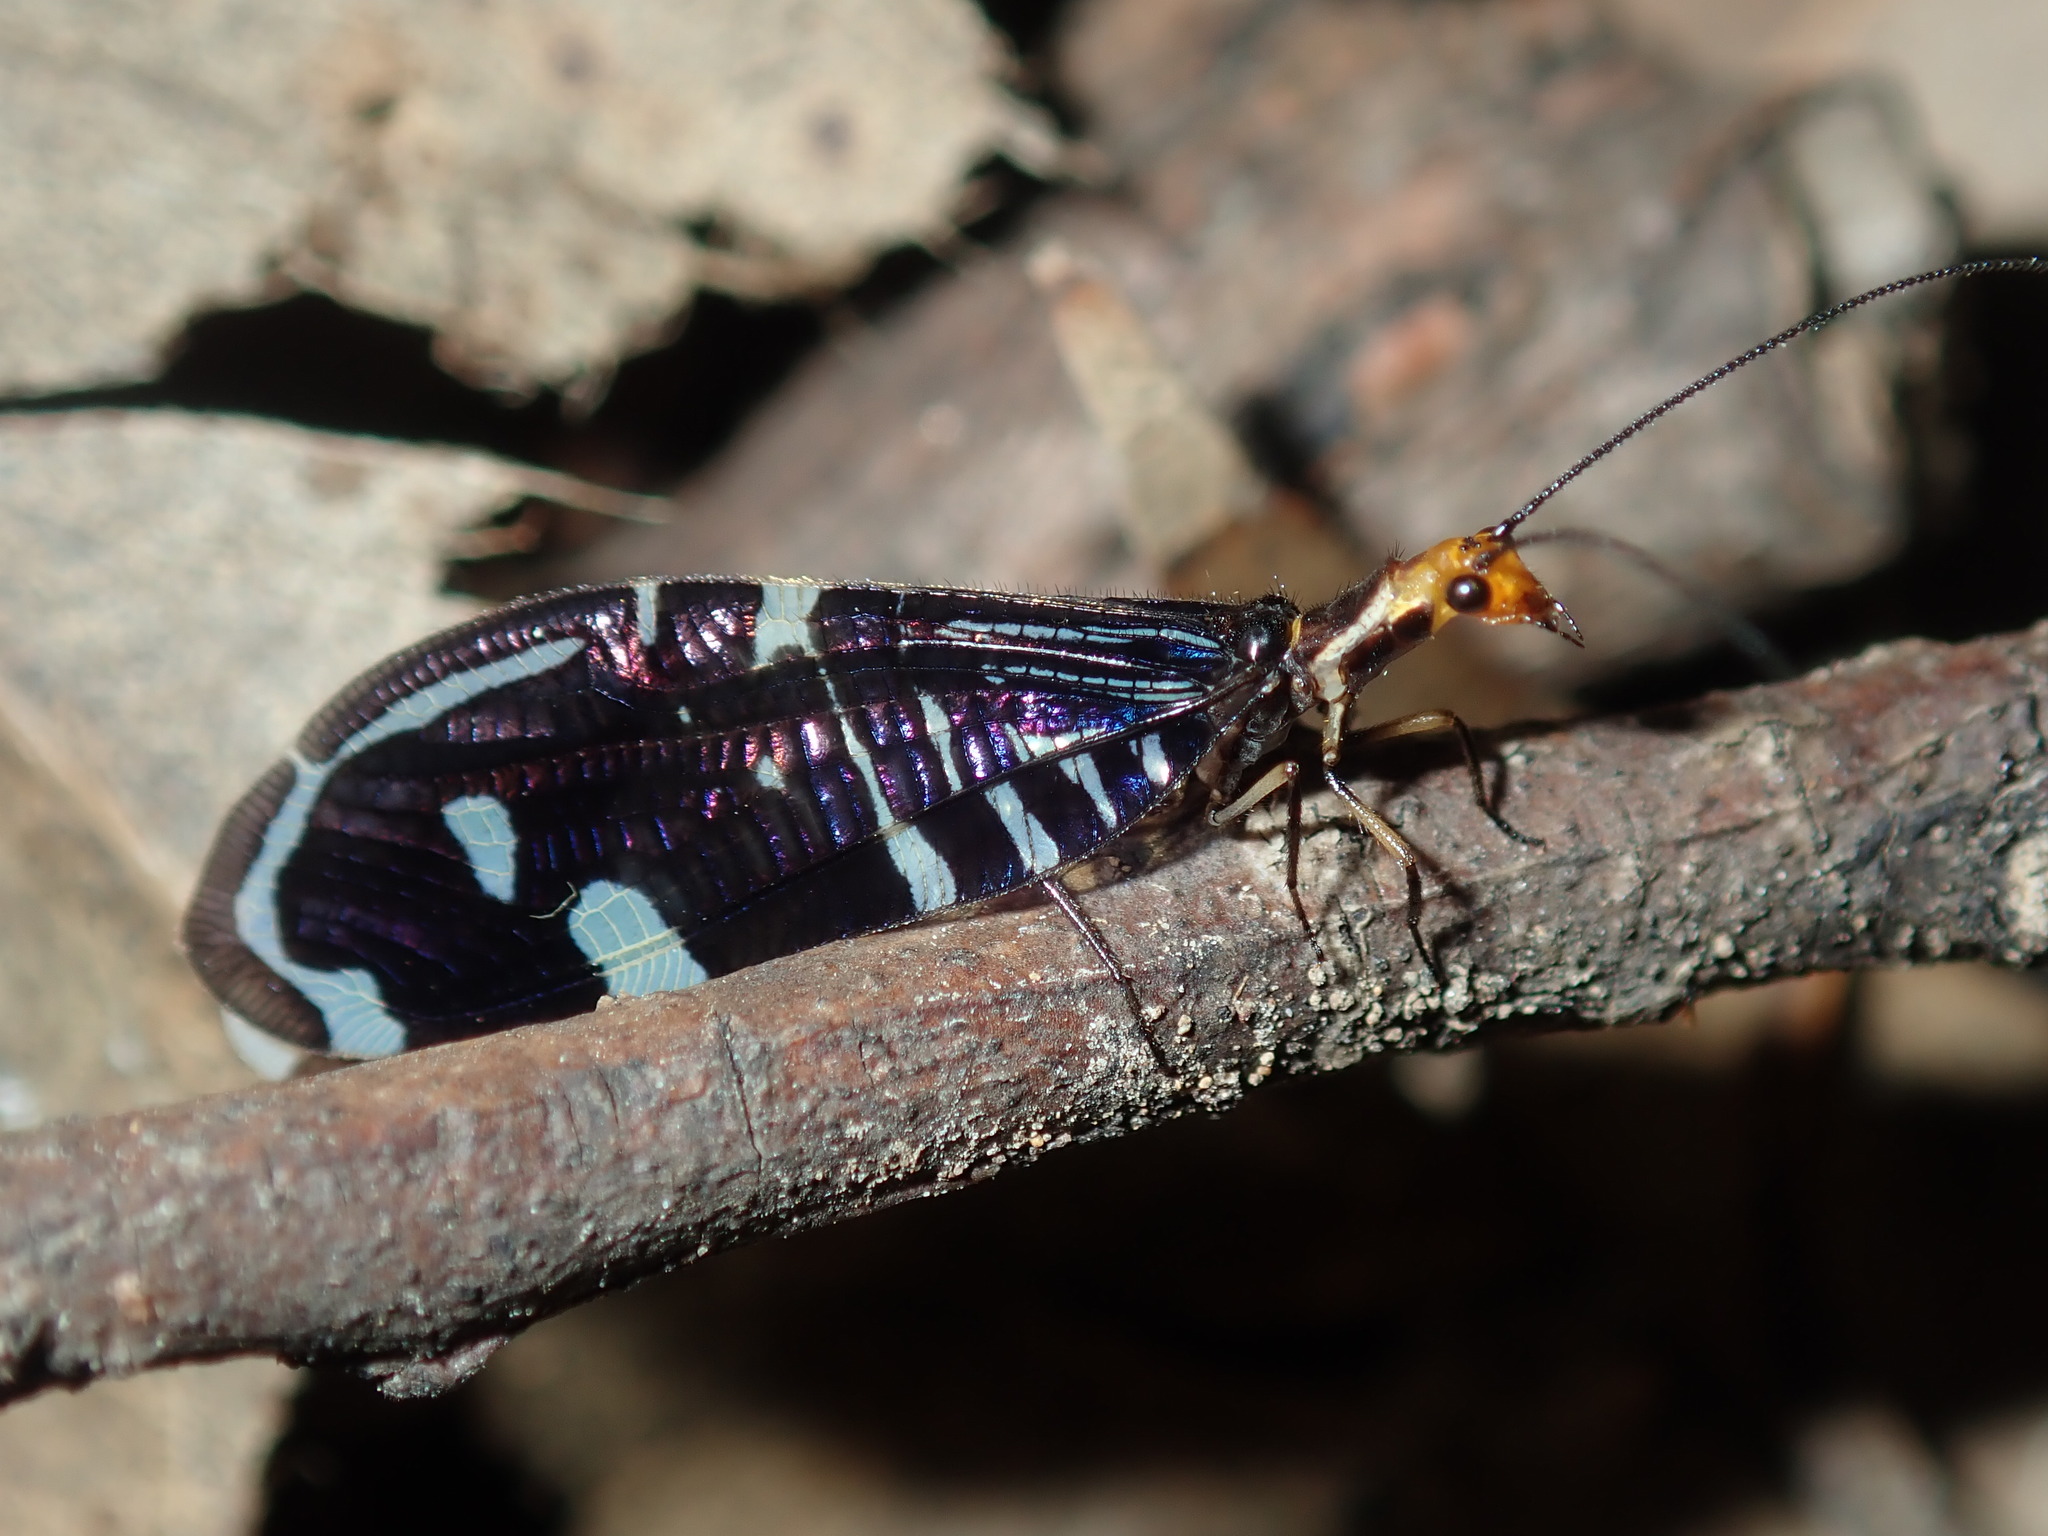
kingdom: Animalia
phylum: Arthropoda
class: Insecta
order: Neuroptera
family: Osmylidae
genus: Porismus
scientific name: Porismus strigatus
